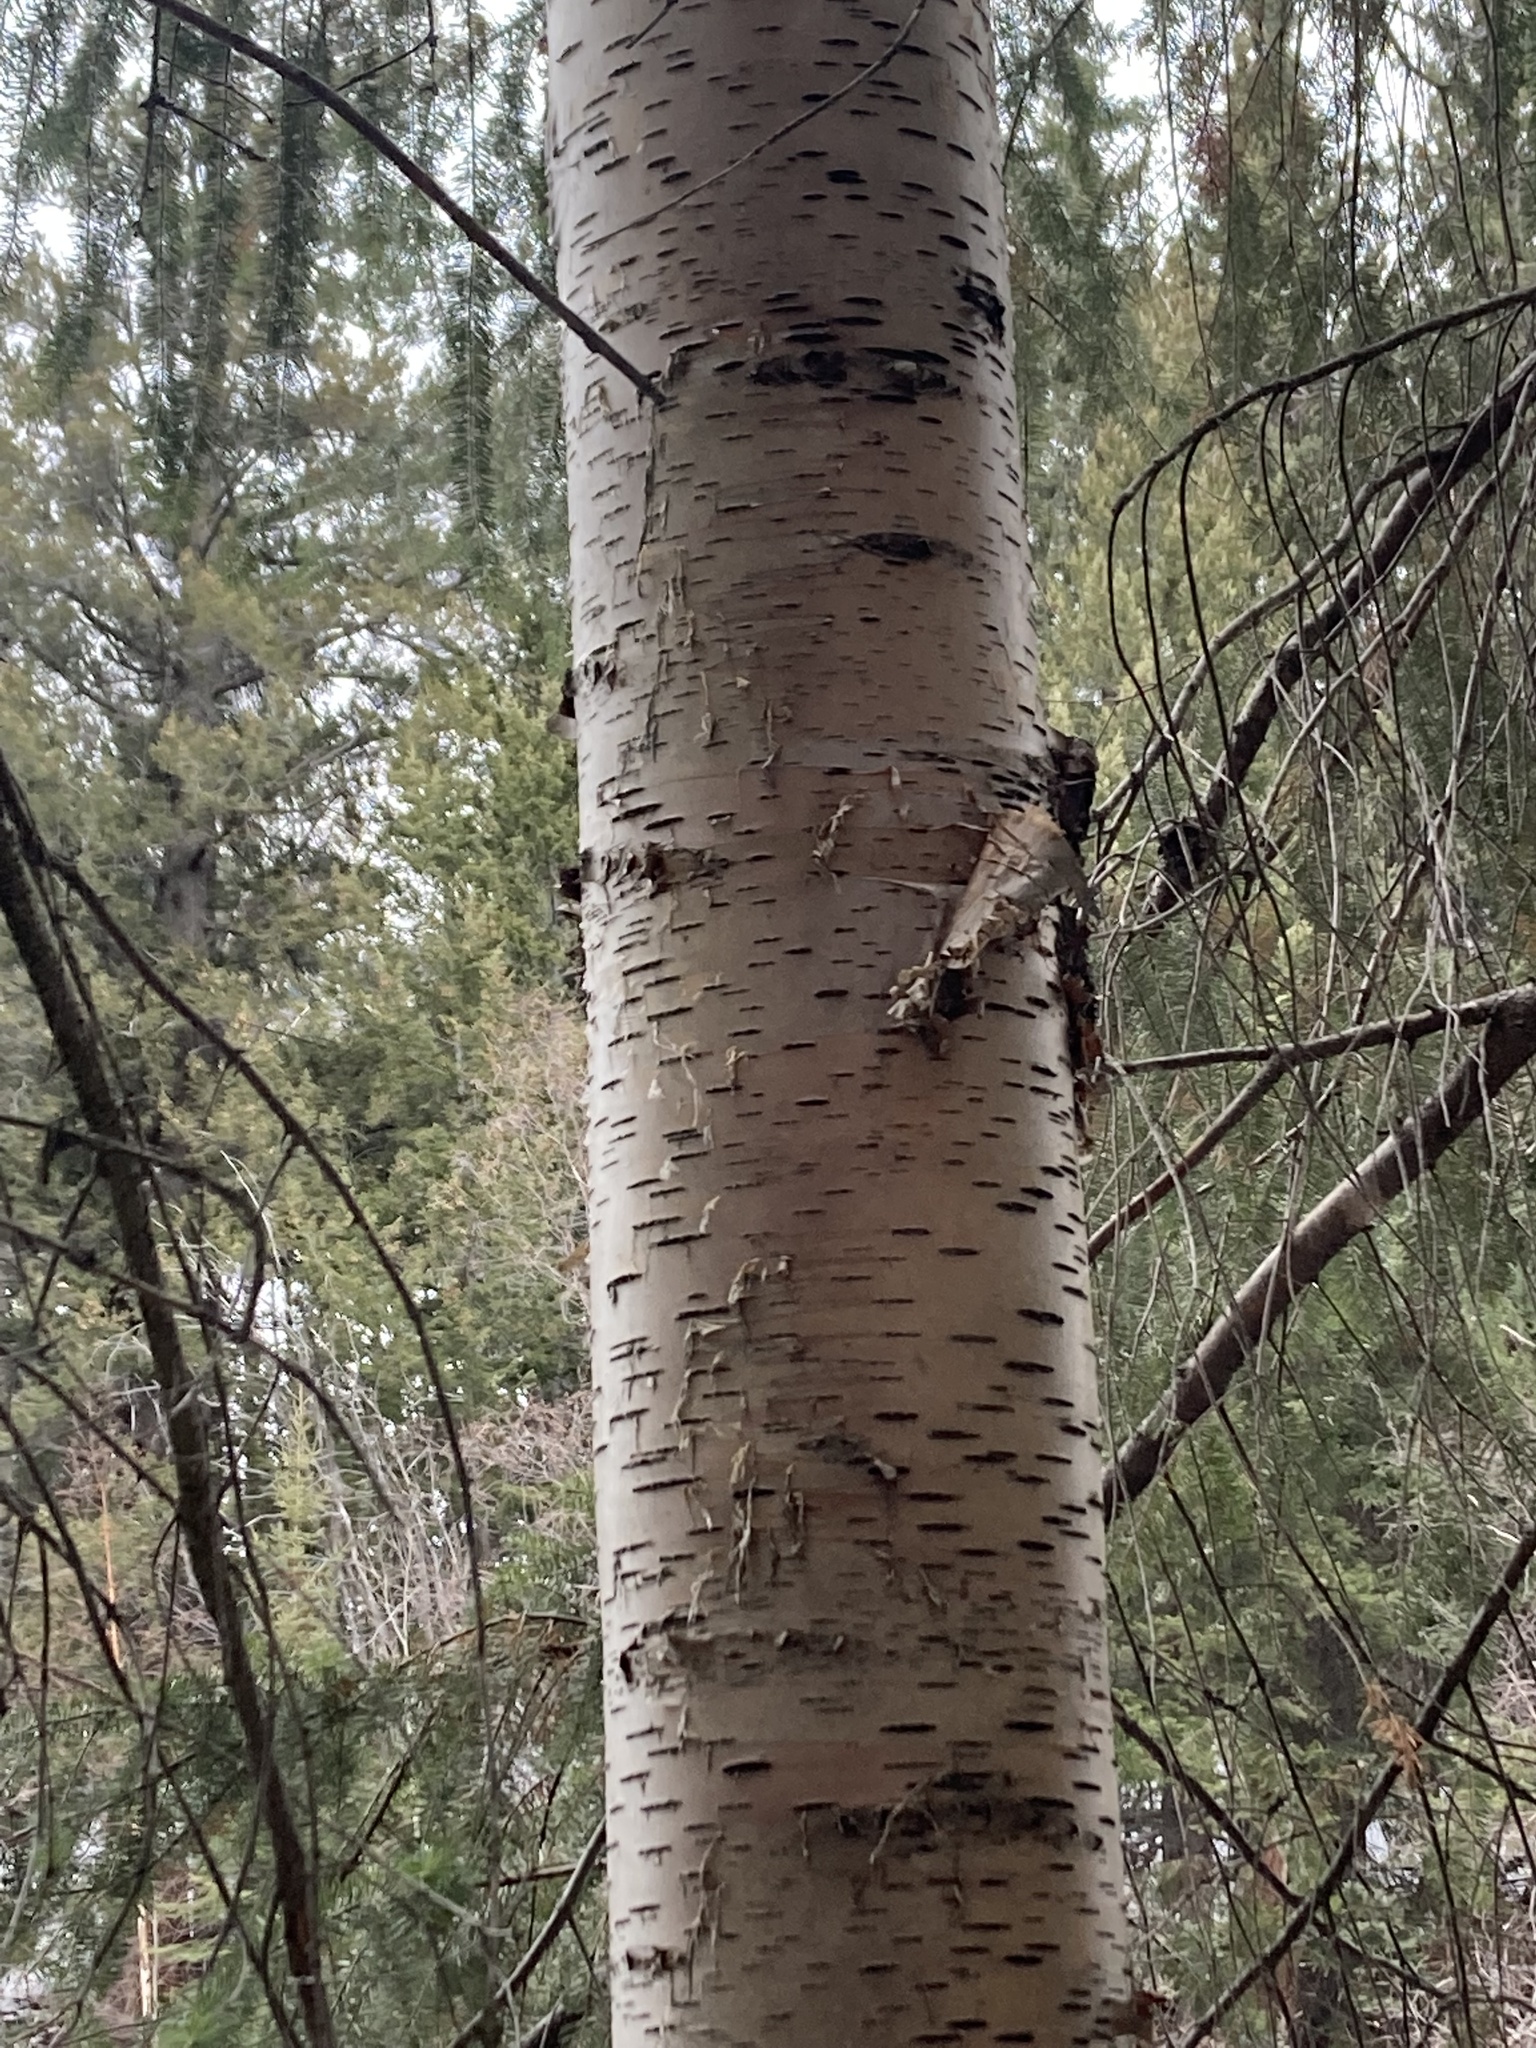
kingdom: Plantae
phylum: Tracheophyta
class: Magnoliopsida
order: Fagales
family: Betulaceae
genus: Betula
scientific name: Betula papyrifera
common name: Paper birch
